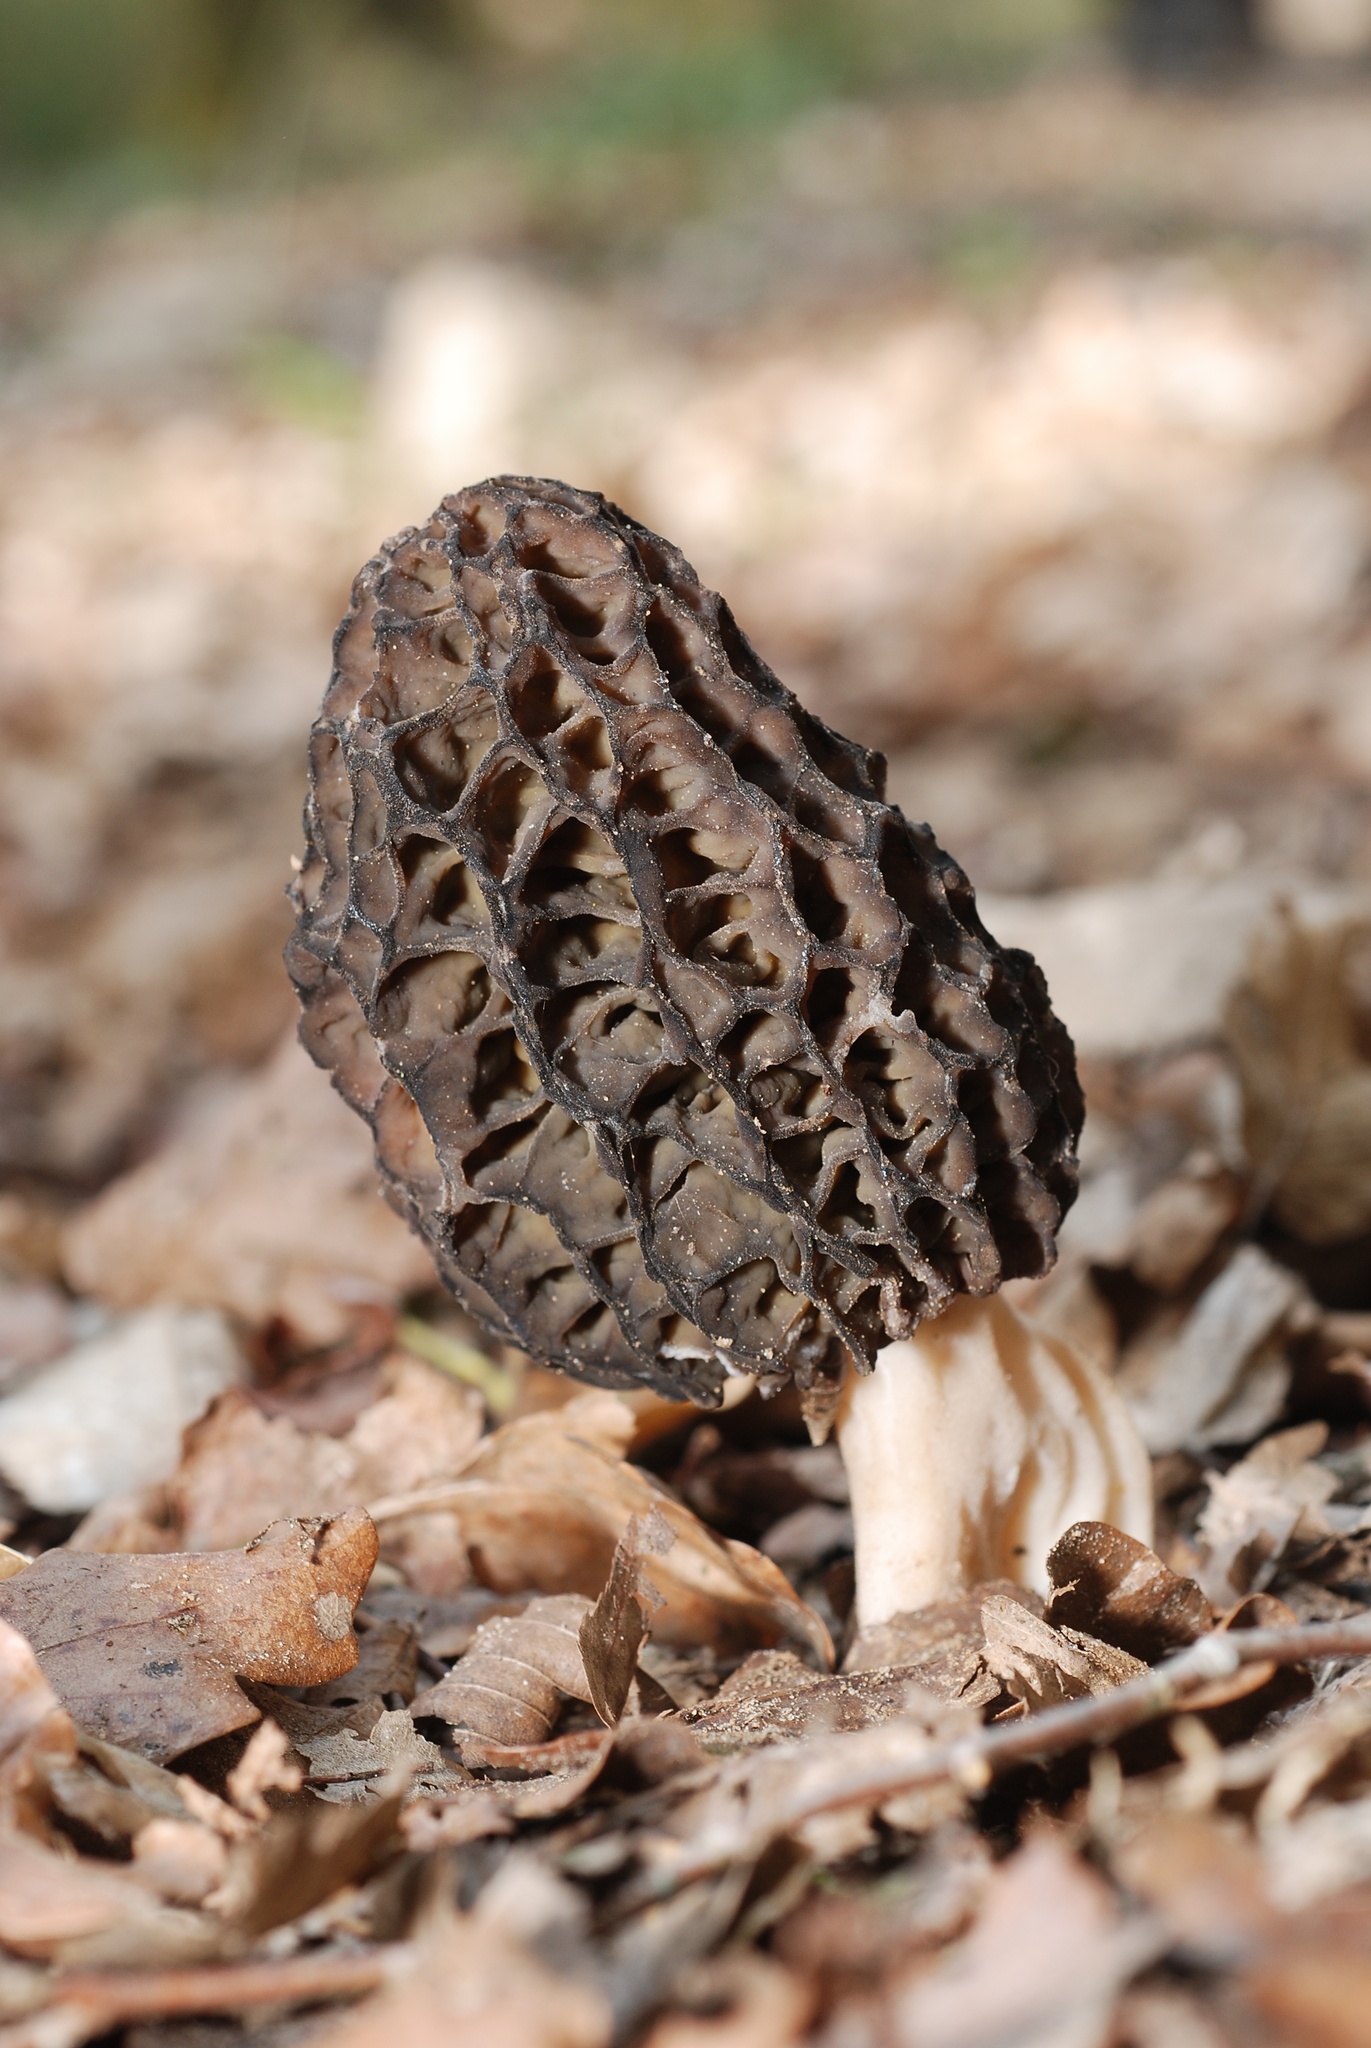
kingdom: Fungi
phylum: Ascomycota
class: Pezizomycetes
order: Pezizales
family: Morchellaceae
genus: Morchella
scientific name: Morchella esculenta
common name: Morel
